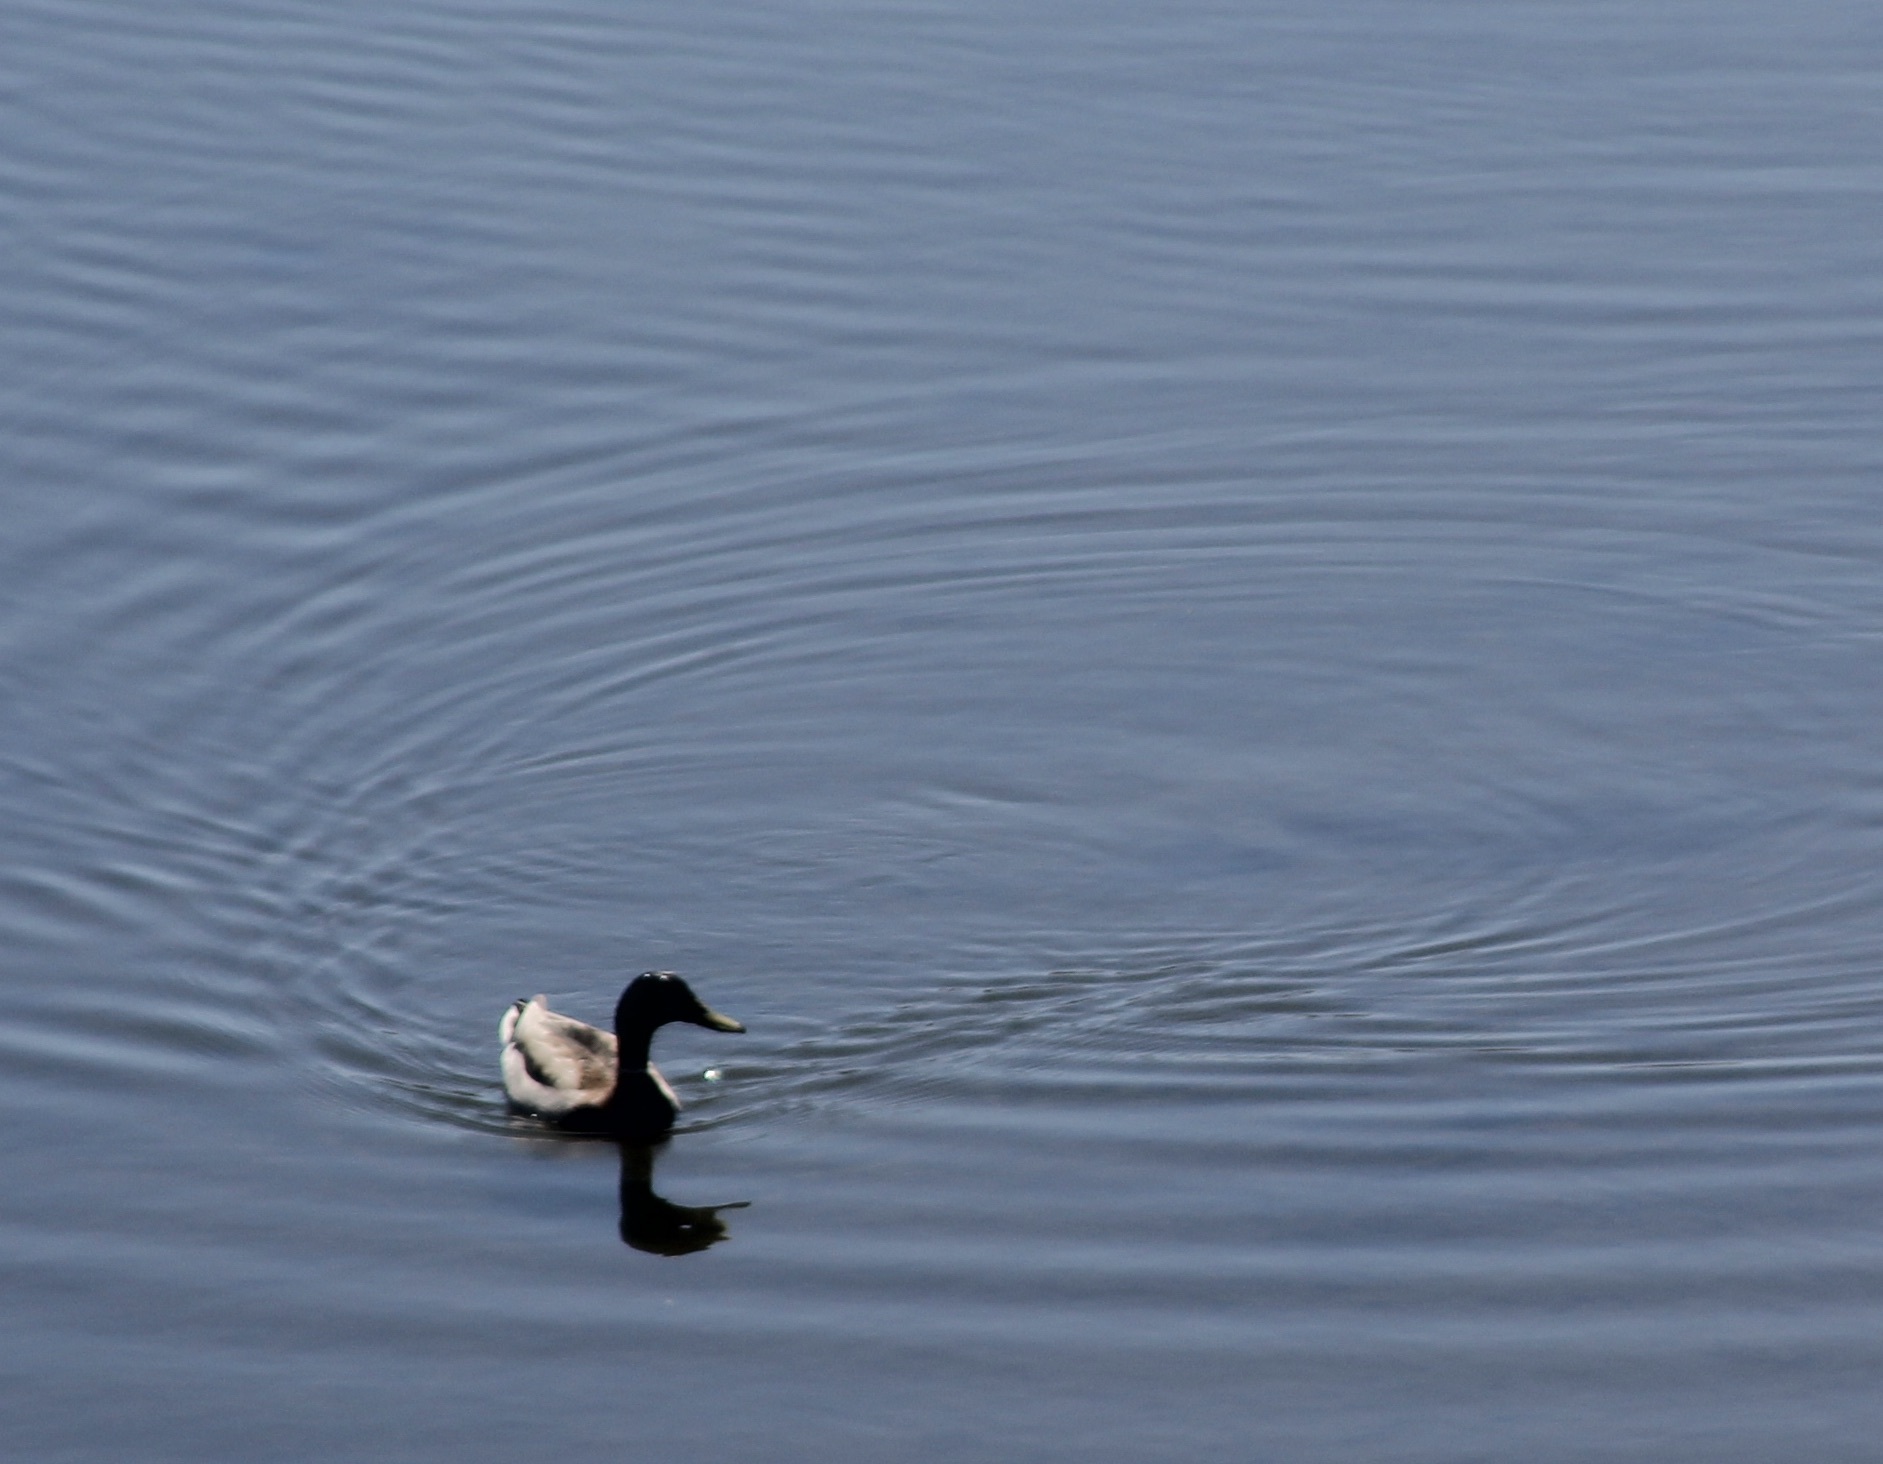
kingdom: Animalia
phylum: Chordata
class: Aves
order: Anseriformes
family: Anatidae
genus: Anas
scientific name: Anas platyrhynchos
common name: Mallard
